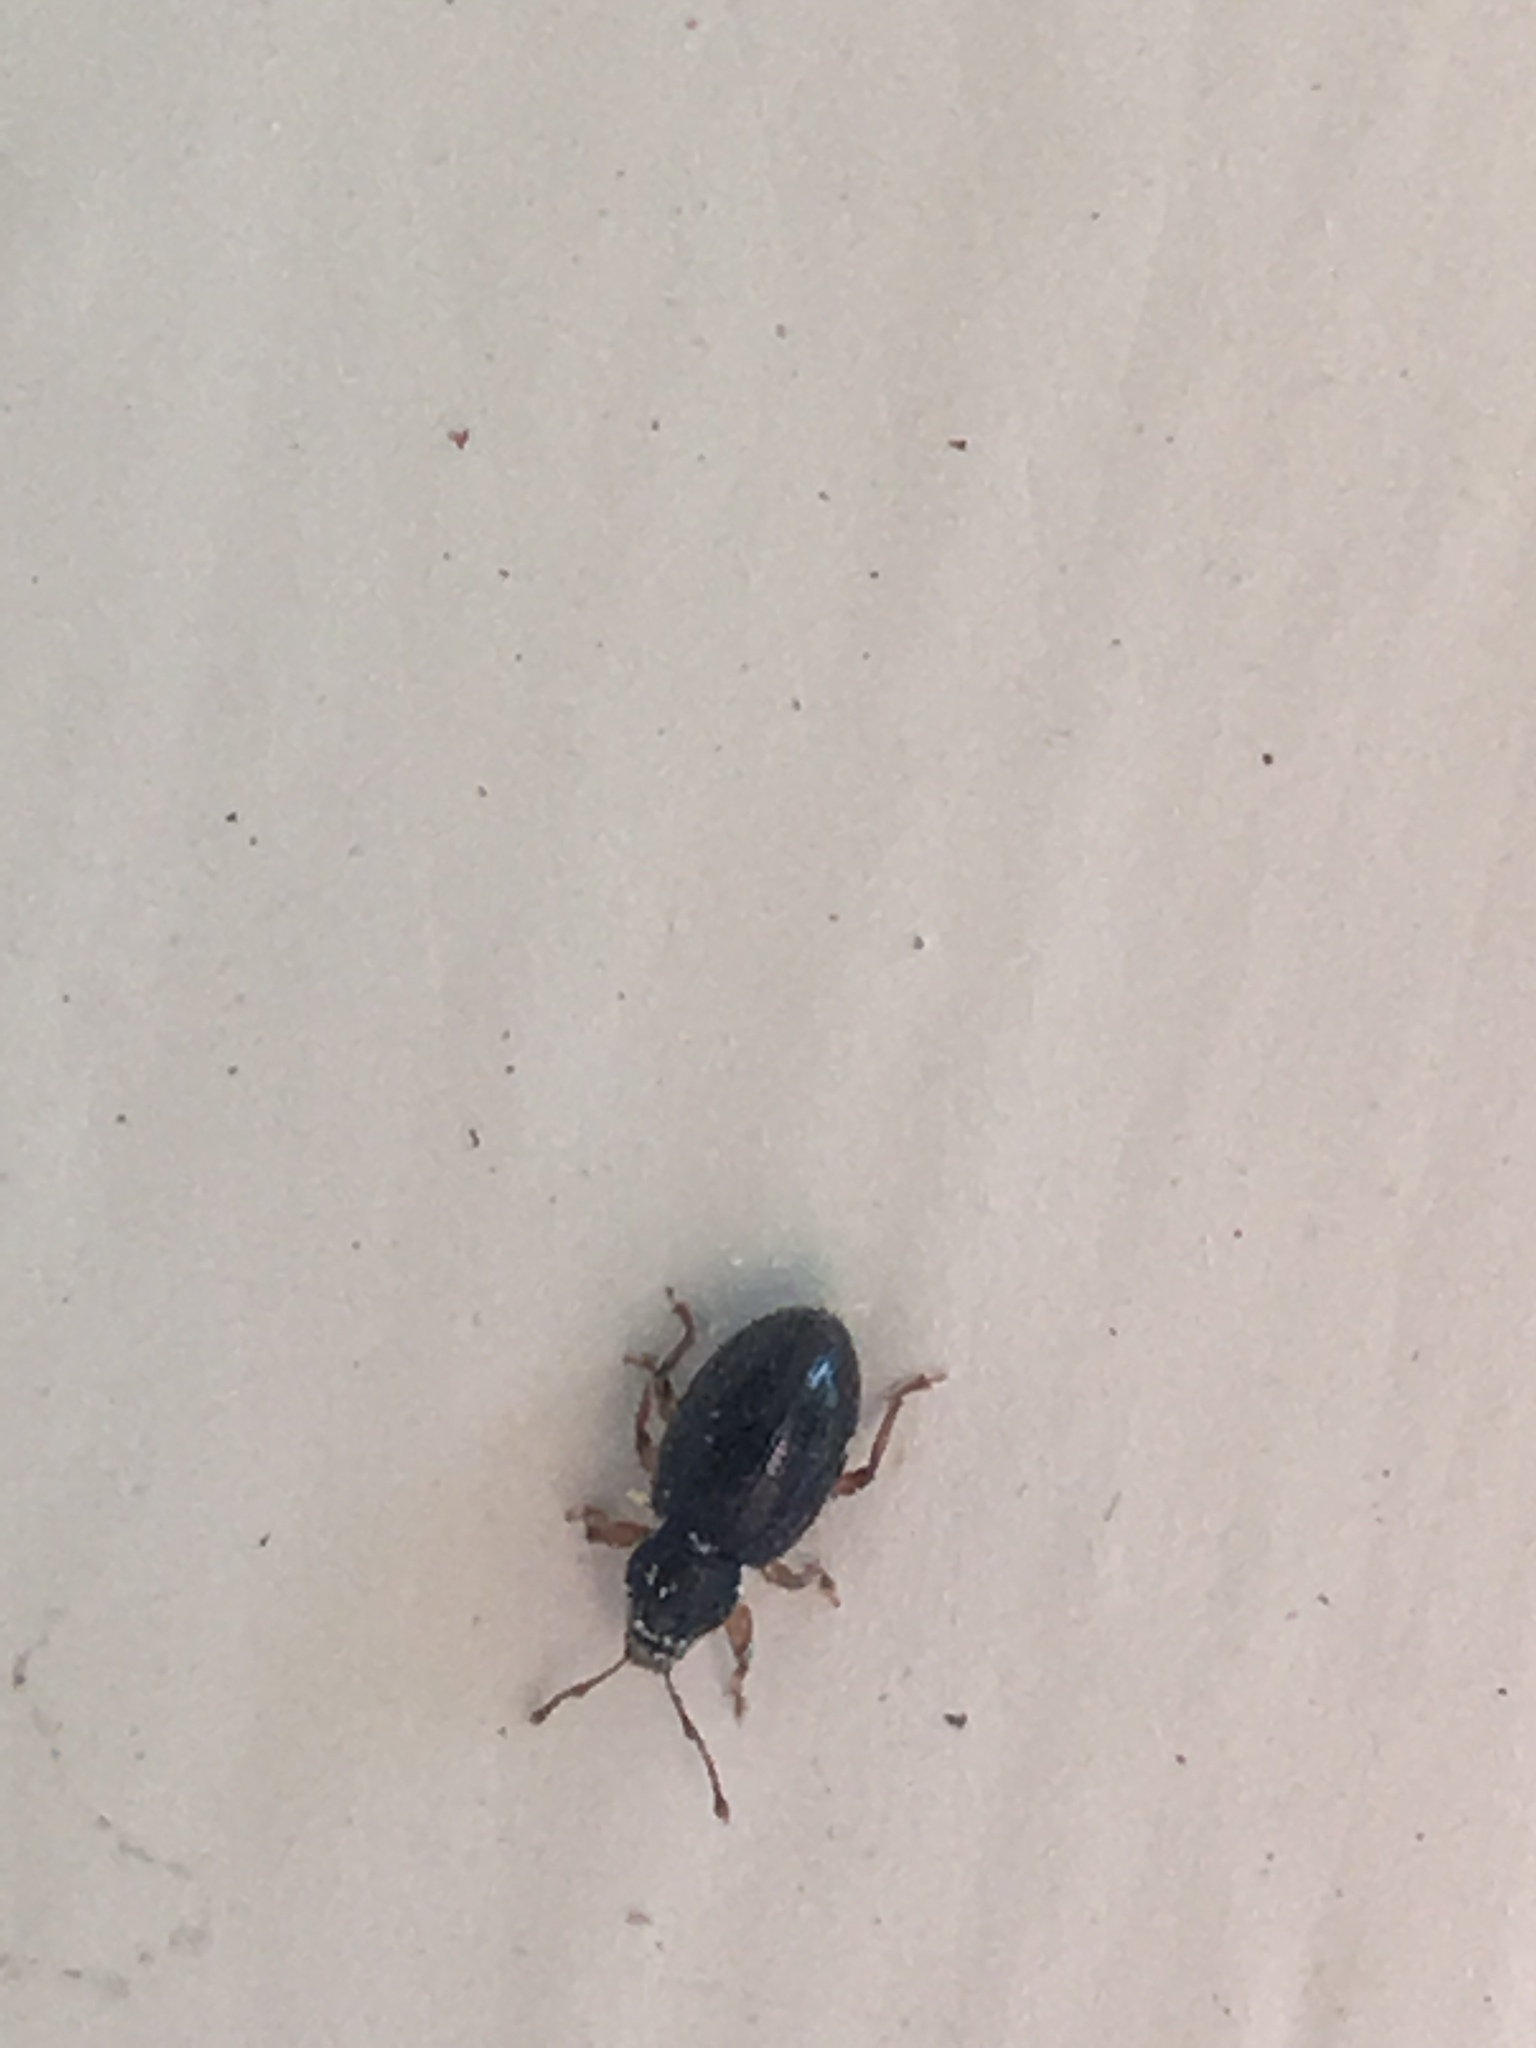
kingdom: Animalia
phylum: Arthropoda
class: Insecta
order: Coleoptera
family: Curculionidae
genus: Exomias
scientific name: Exomias pellucidus
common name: Hairy spider weevil
